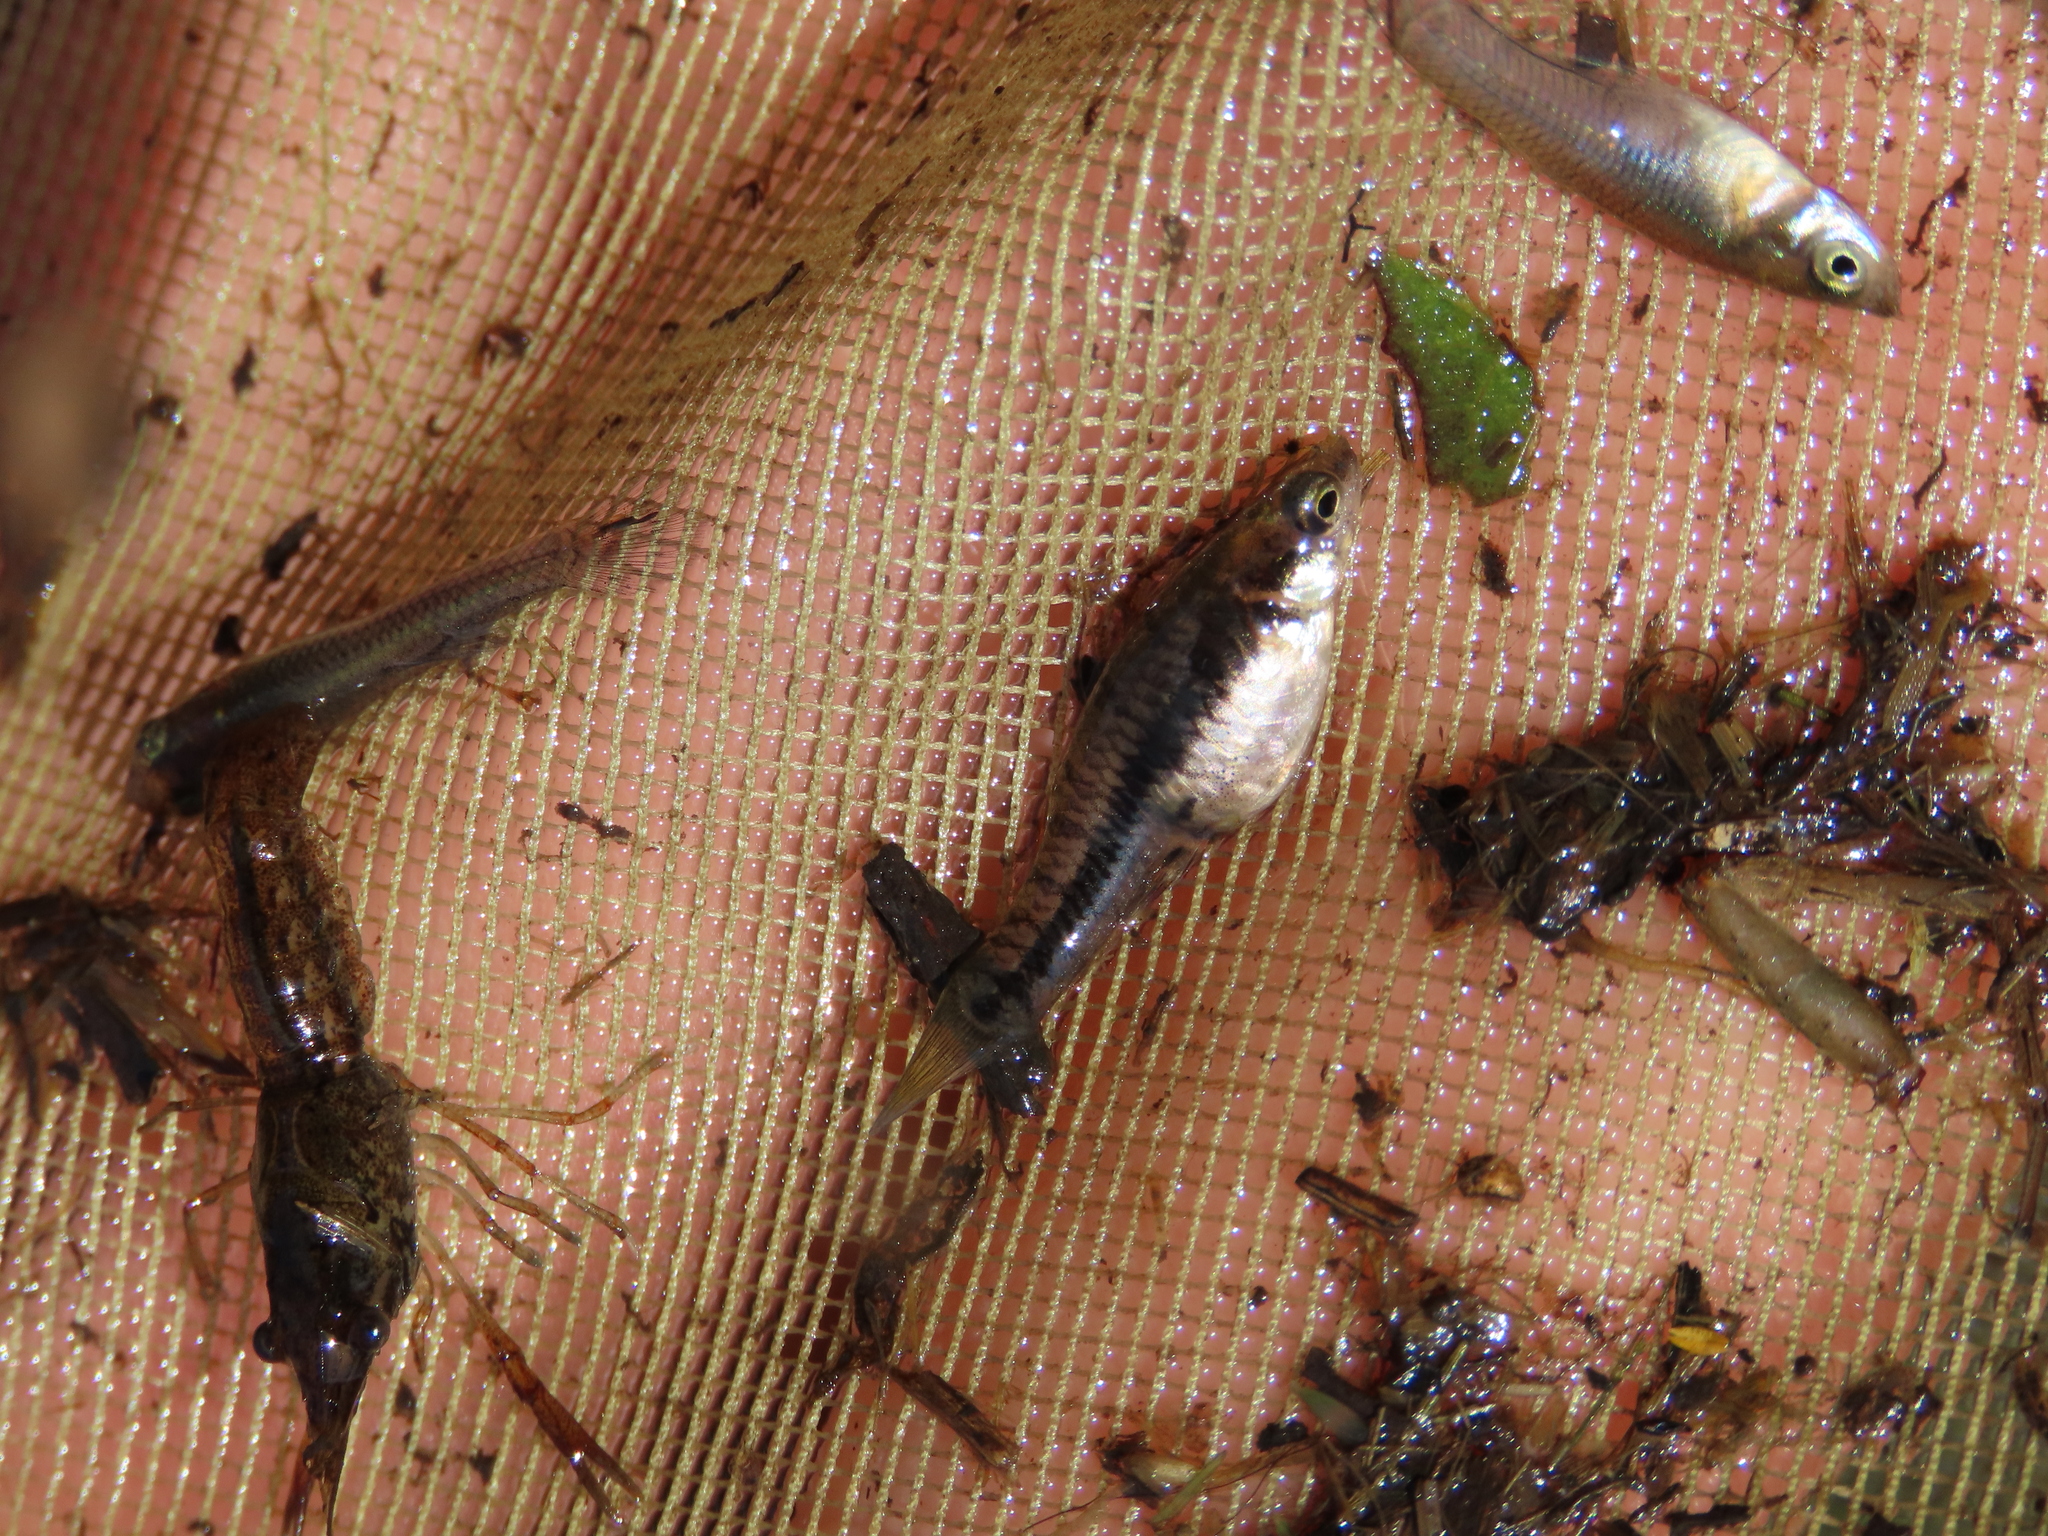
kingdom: Animalia
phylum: Chordata
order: Cyprinodontiformes
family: Poeciliidae
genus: Heterandria
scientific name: Heterandria formosa
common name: Least killifish
